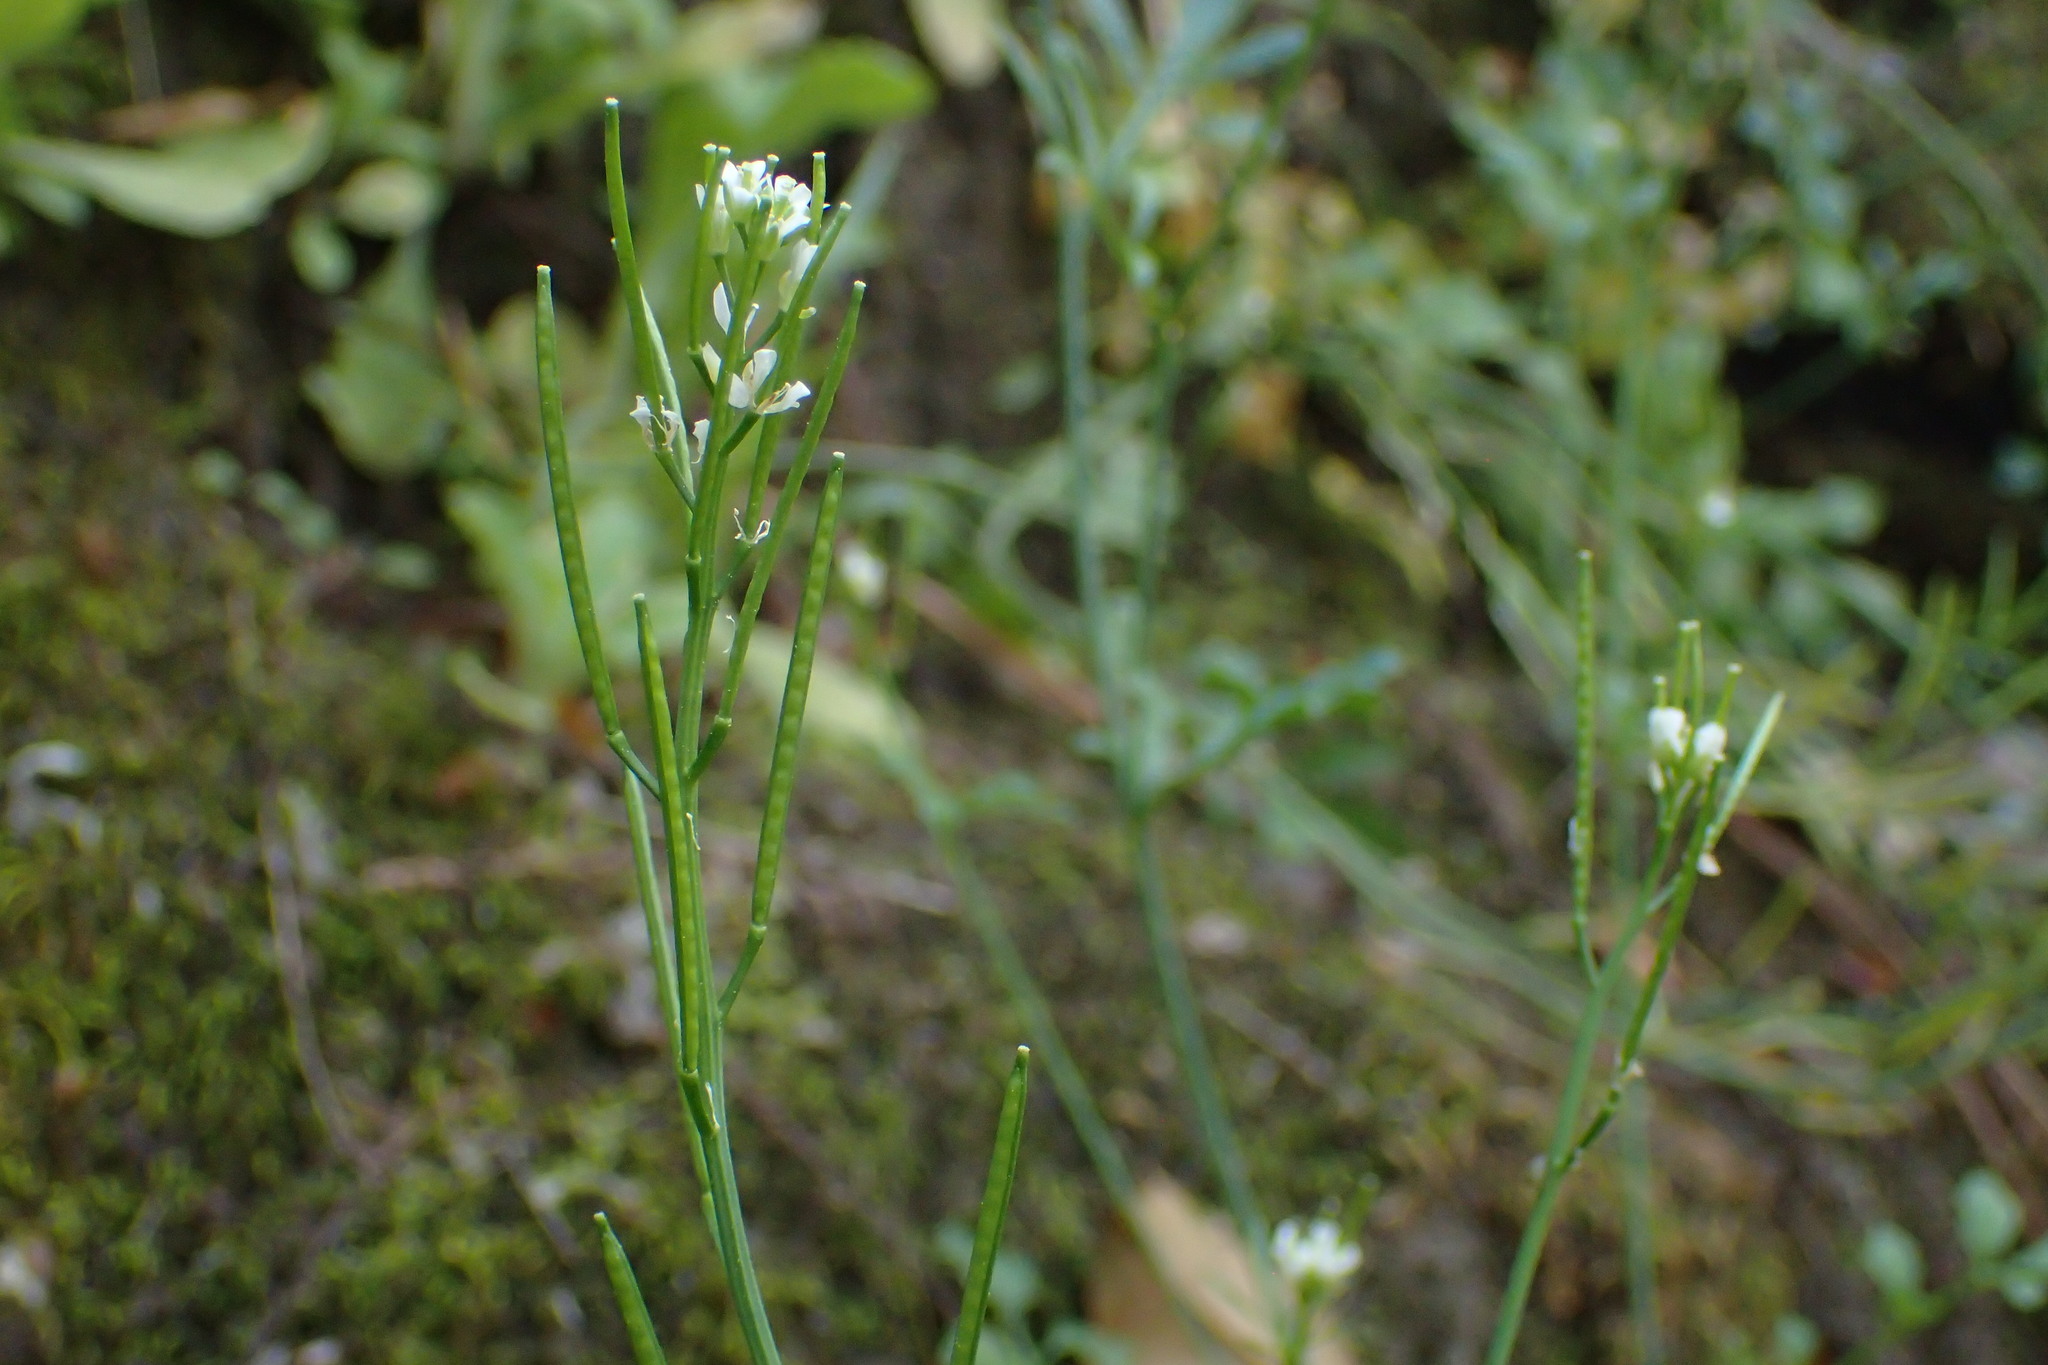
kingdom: Plantae
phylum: Tracheophyta
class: Magnoliopsida
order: Brassicales
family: Brassicaceae
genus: Cardamine
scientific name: Cardamine hirsuta
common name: Hairy bittercress
